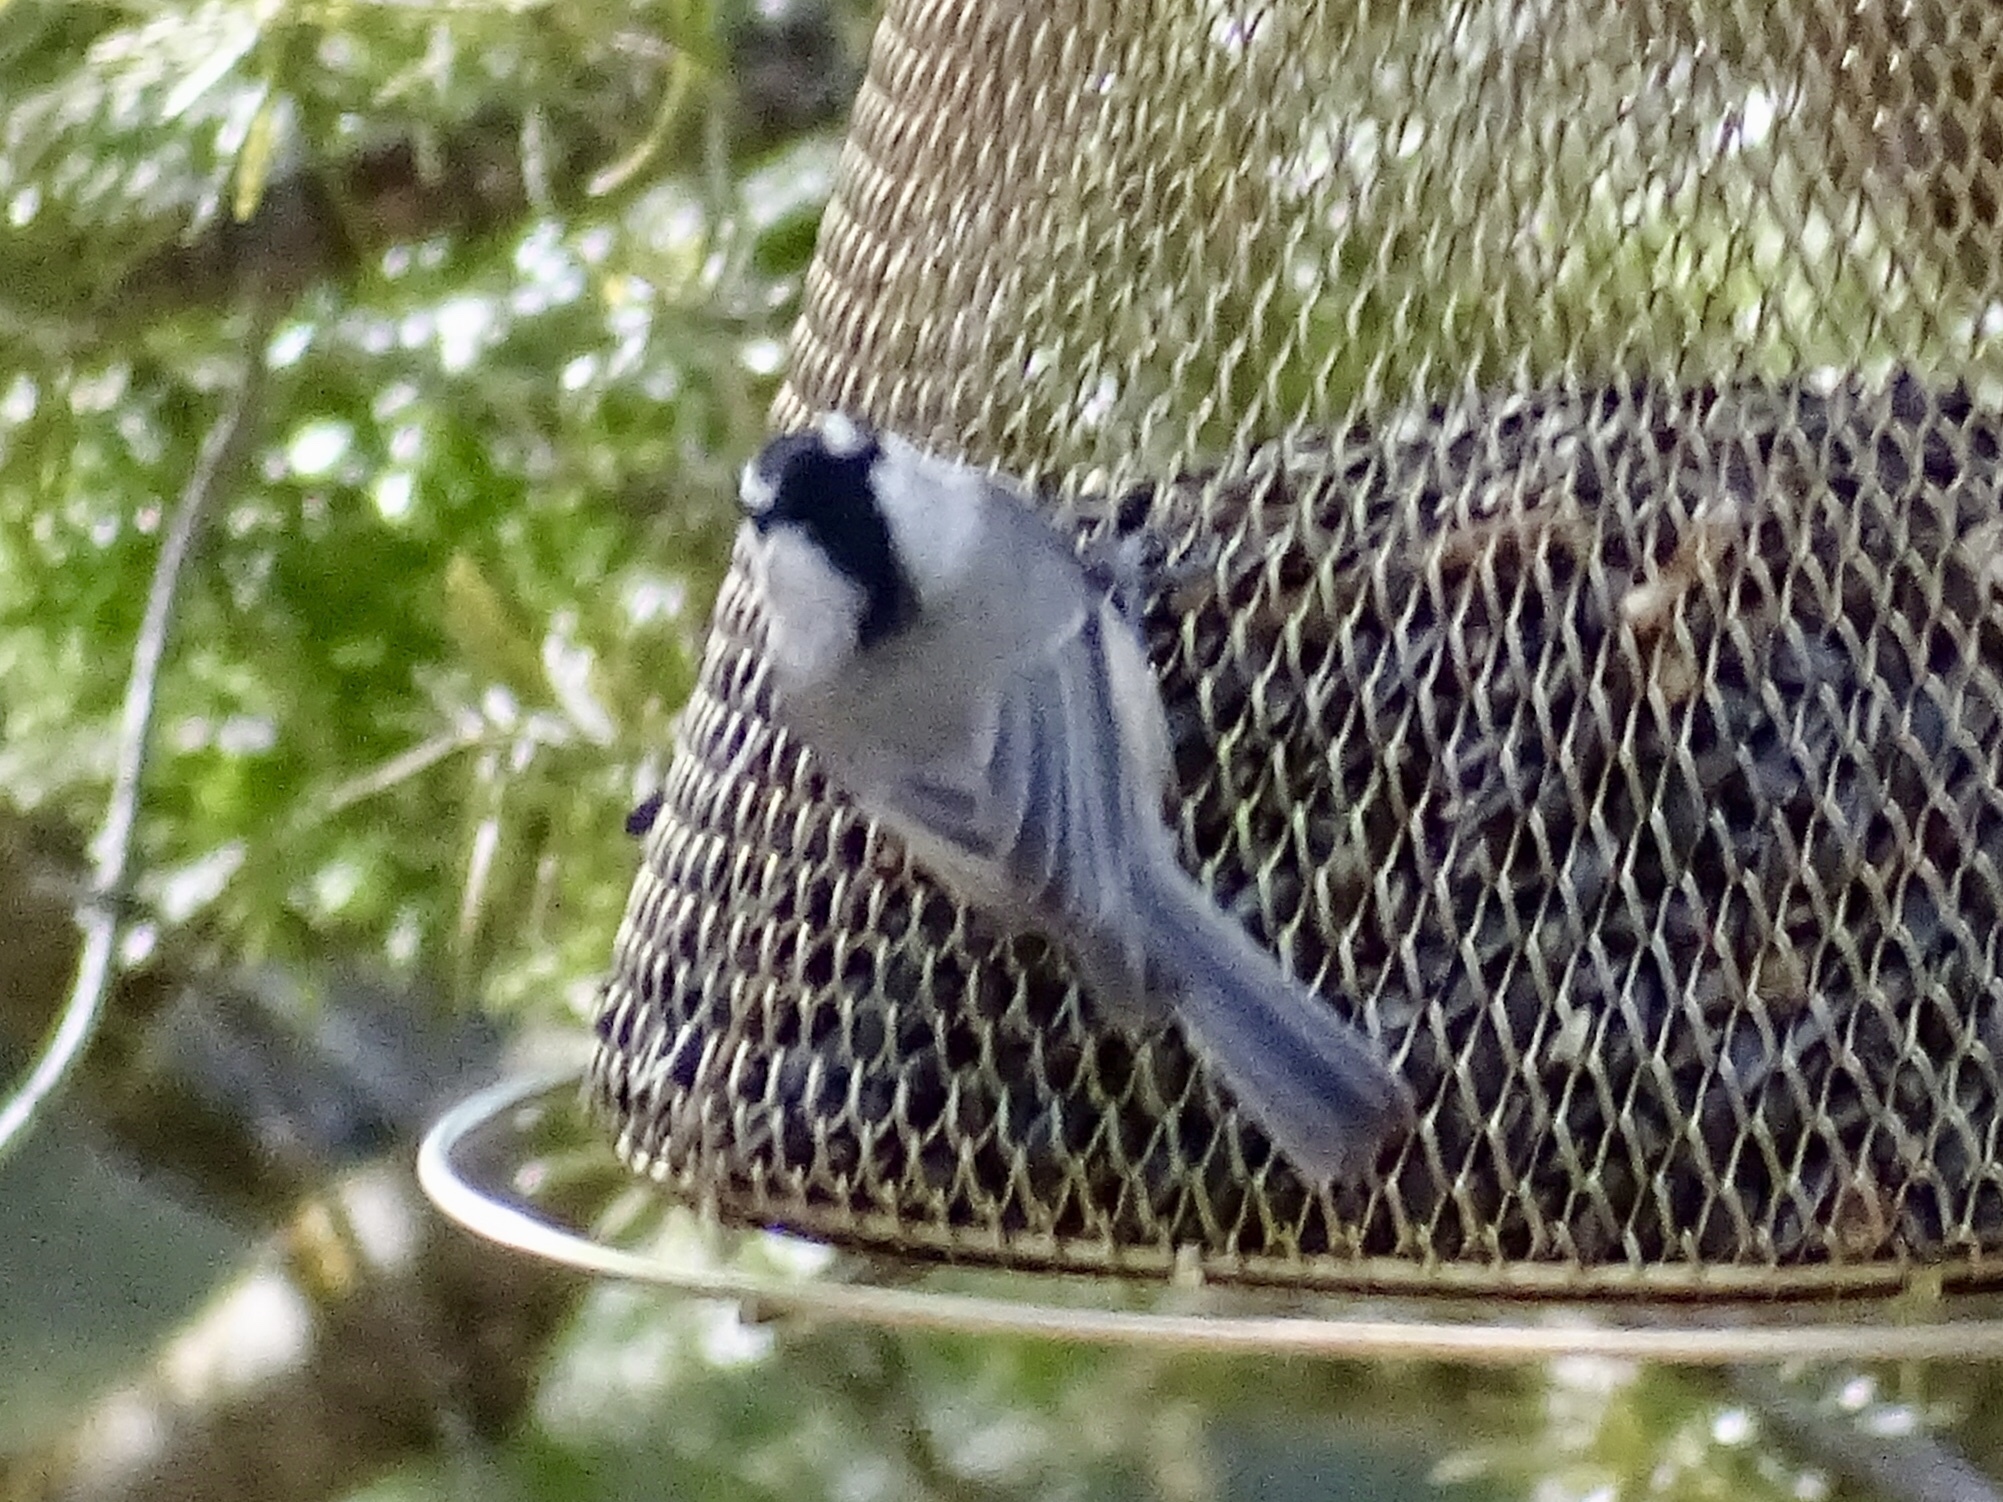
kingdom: Animalia
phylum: Chordata
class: Aves
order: Passeriformes
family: Paridae
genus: Poecile
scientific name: Poecile gambeli
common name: Mountain chickadee
